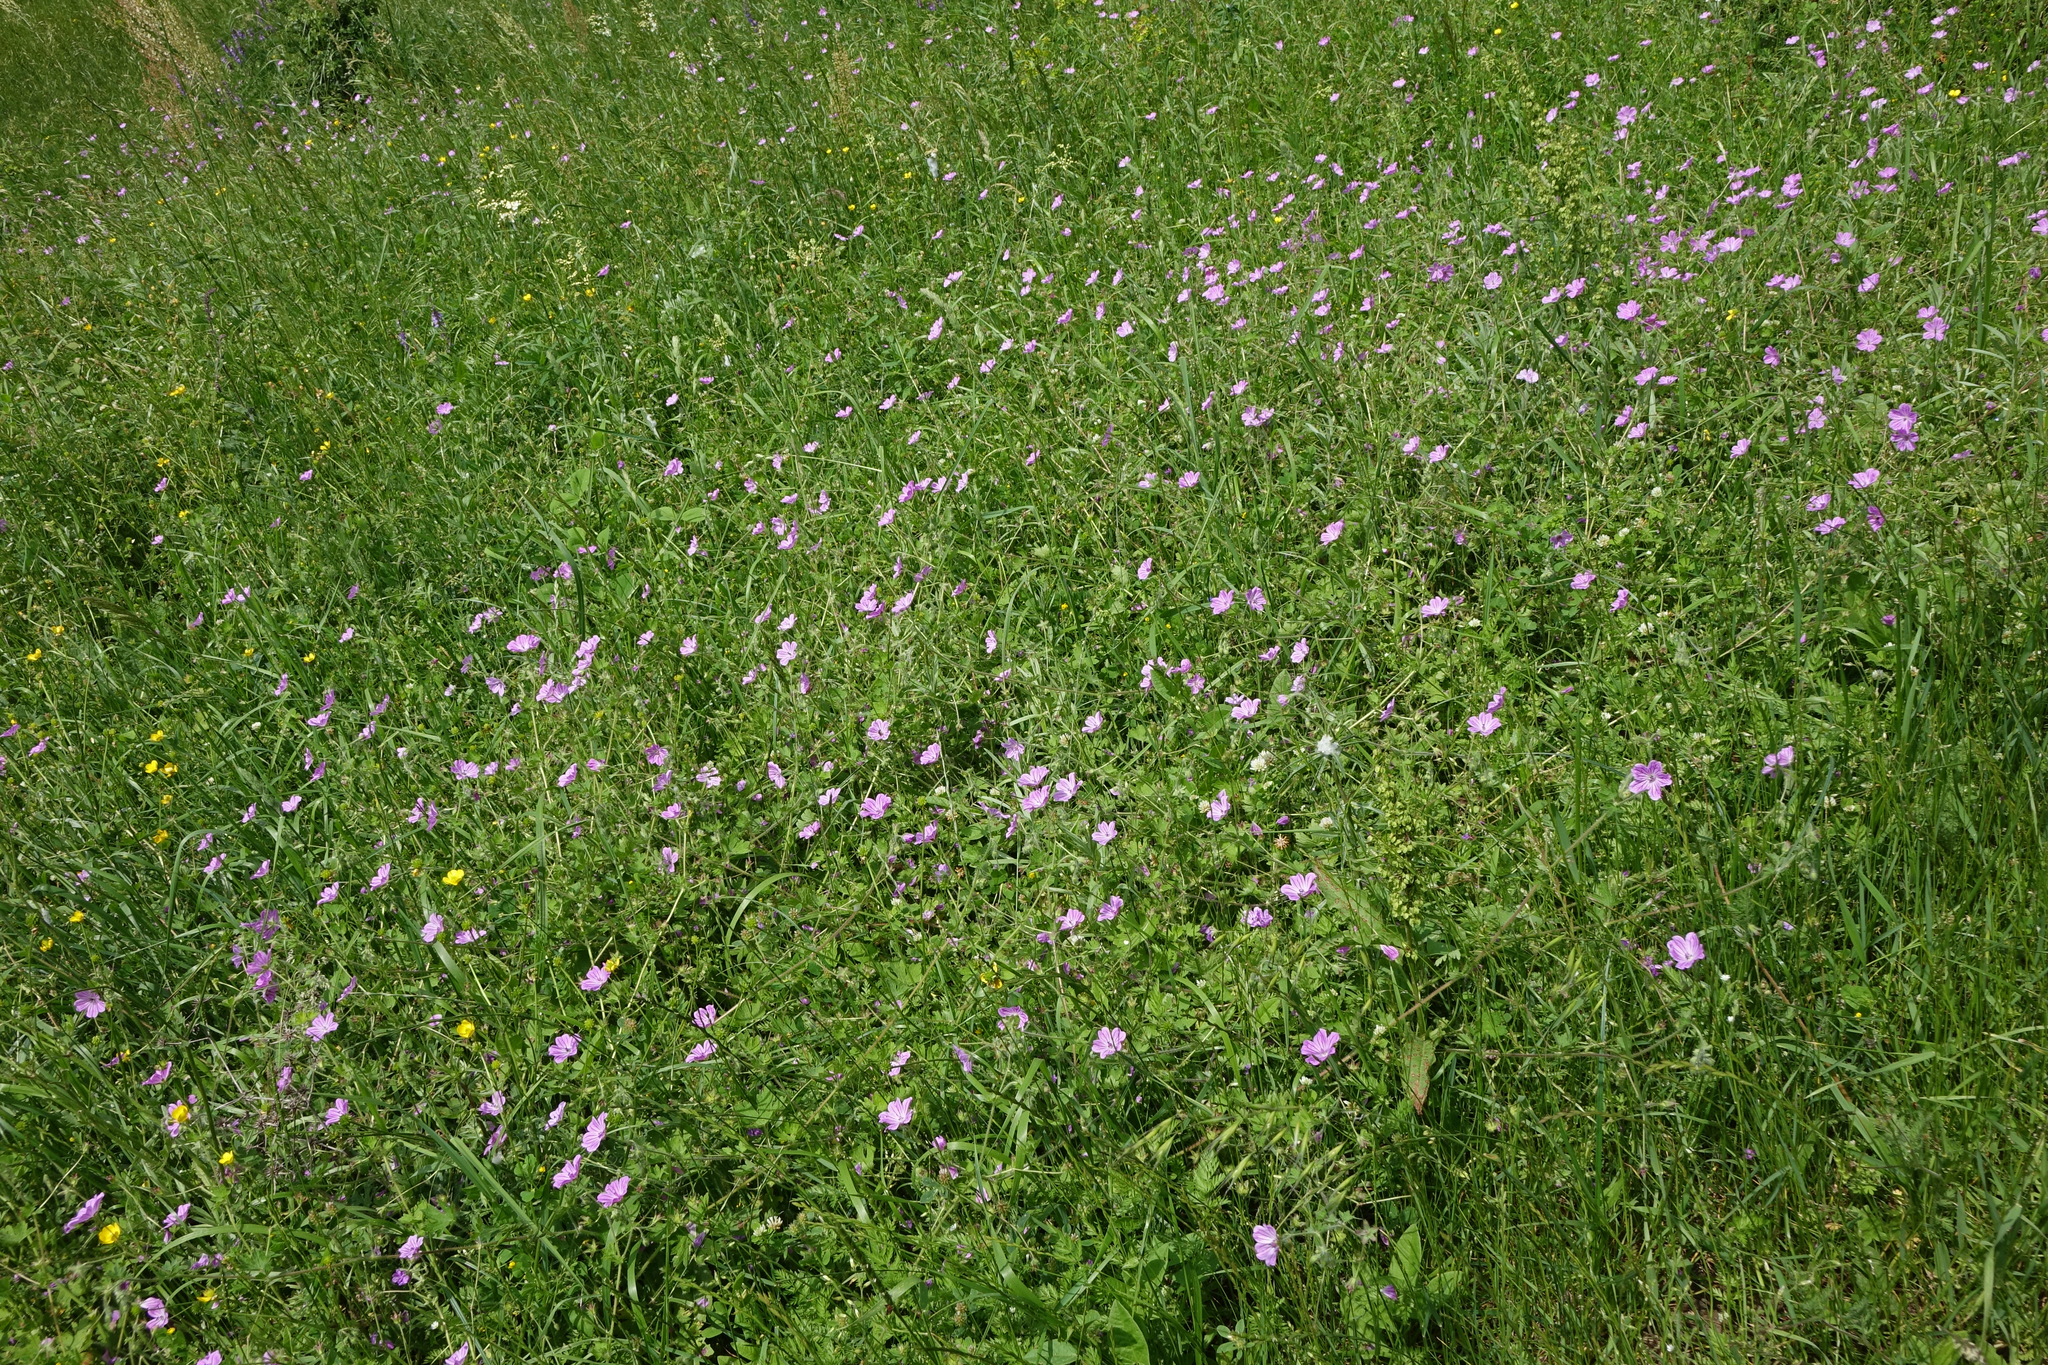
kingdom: Plantae
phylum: Tracheophyta
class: Magnoliopsida
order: Geraniales
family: Geraniaceae
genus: Geranium
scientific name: Geranium albanum
